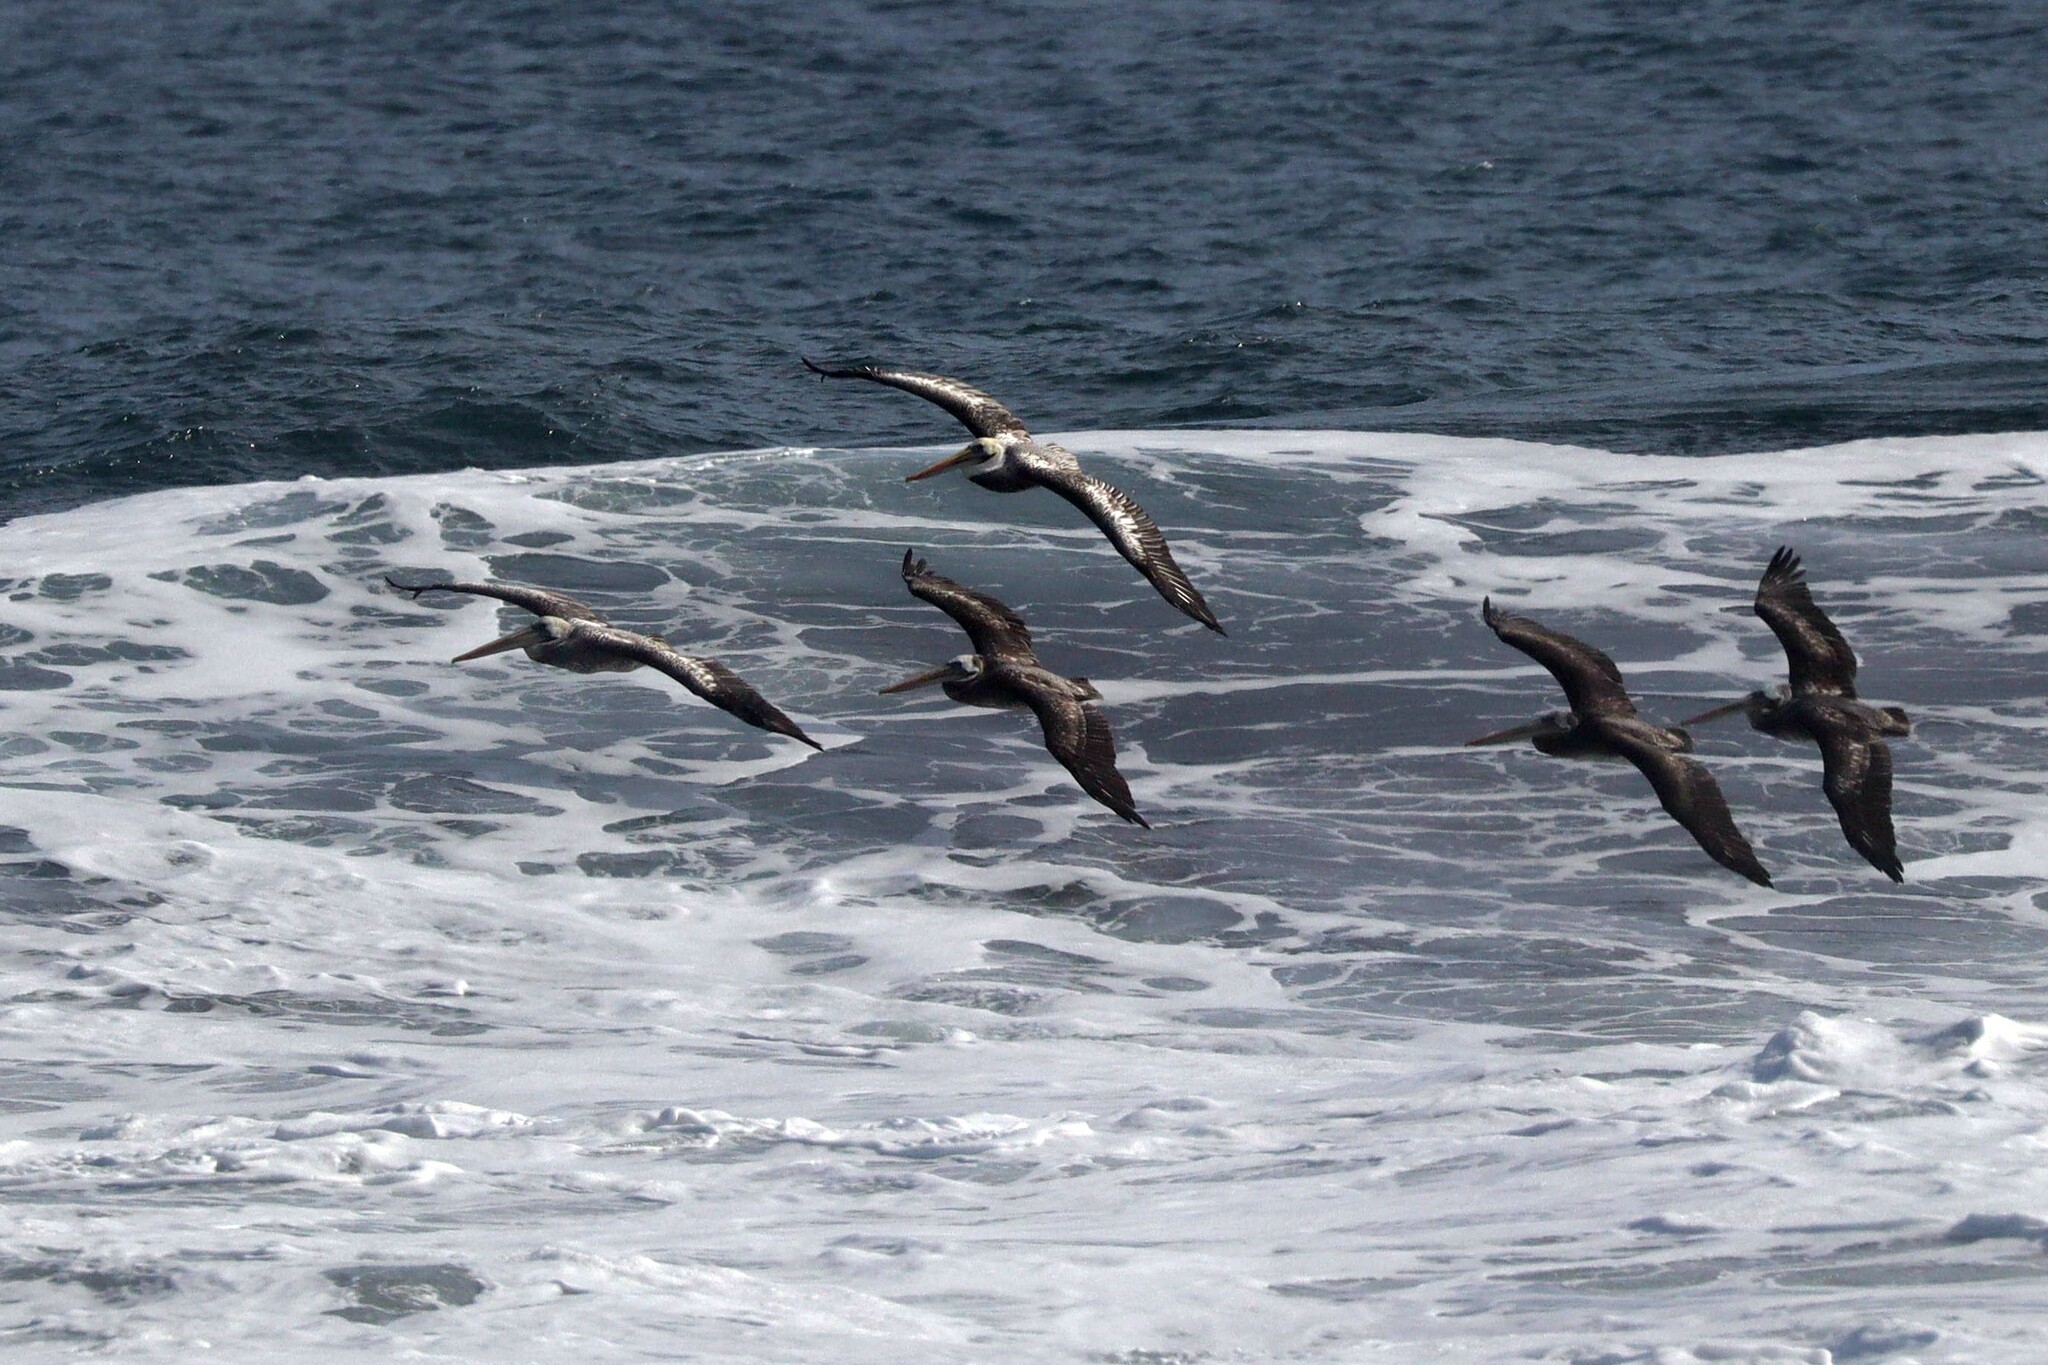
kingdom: Animalia
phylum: Chordata
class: Aves
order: Pelecaniformes
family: Pelecanidae
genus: Pelecanus
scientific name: Pelecanus thagus
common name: Peruvian pelican
